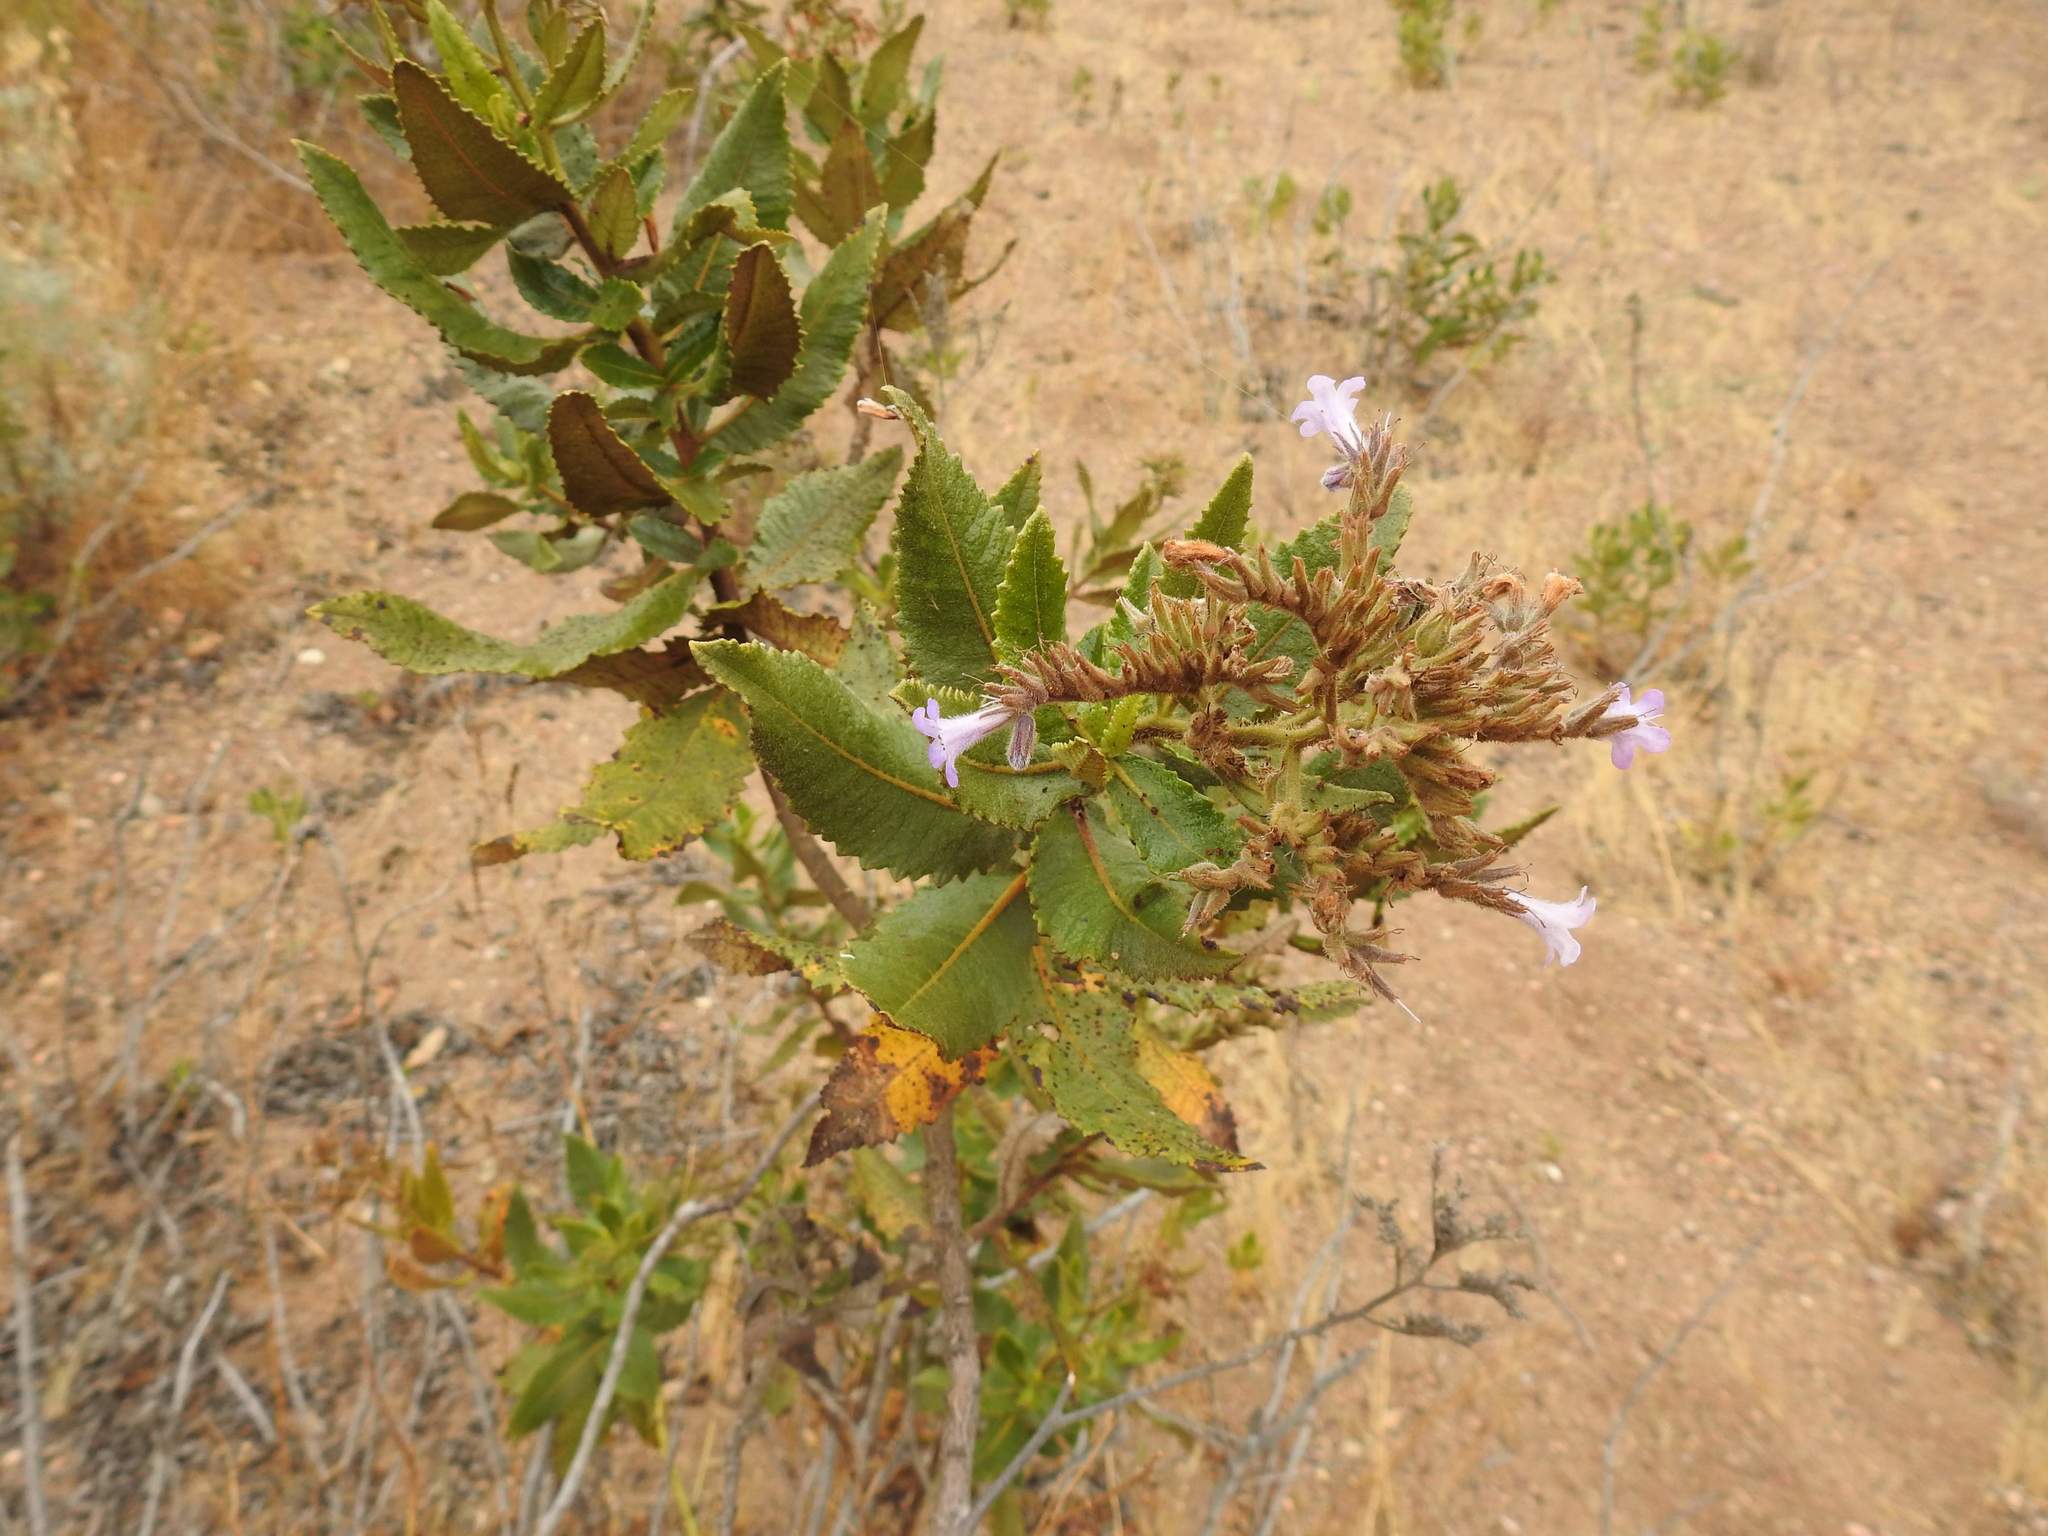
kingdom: Plantae
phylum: Tracheophyta
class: Magnoliopsida
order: Boraginales
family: Namaceae
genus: Eriodictyon
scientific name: Eriodictyon sessilifolium
